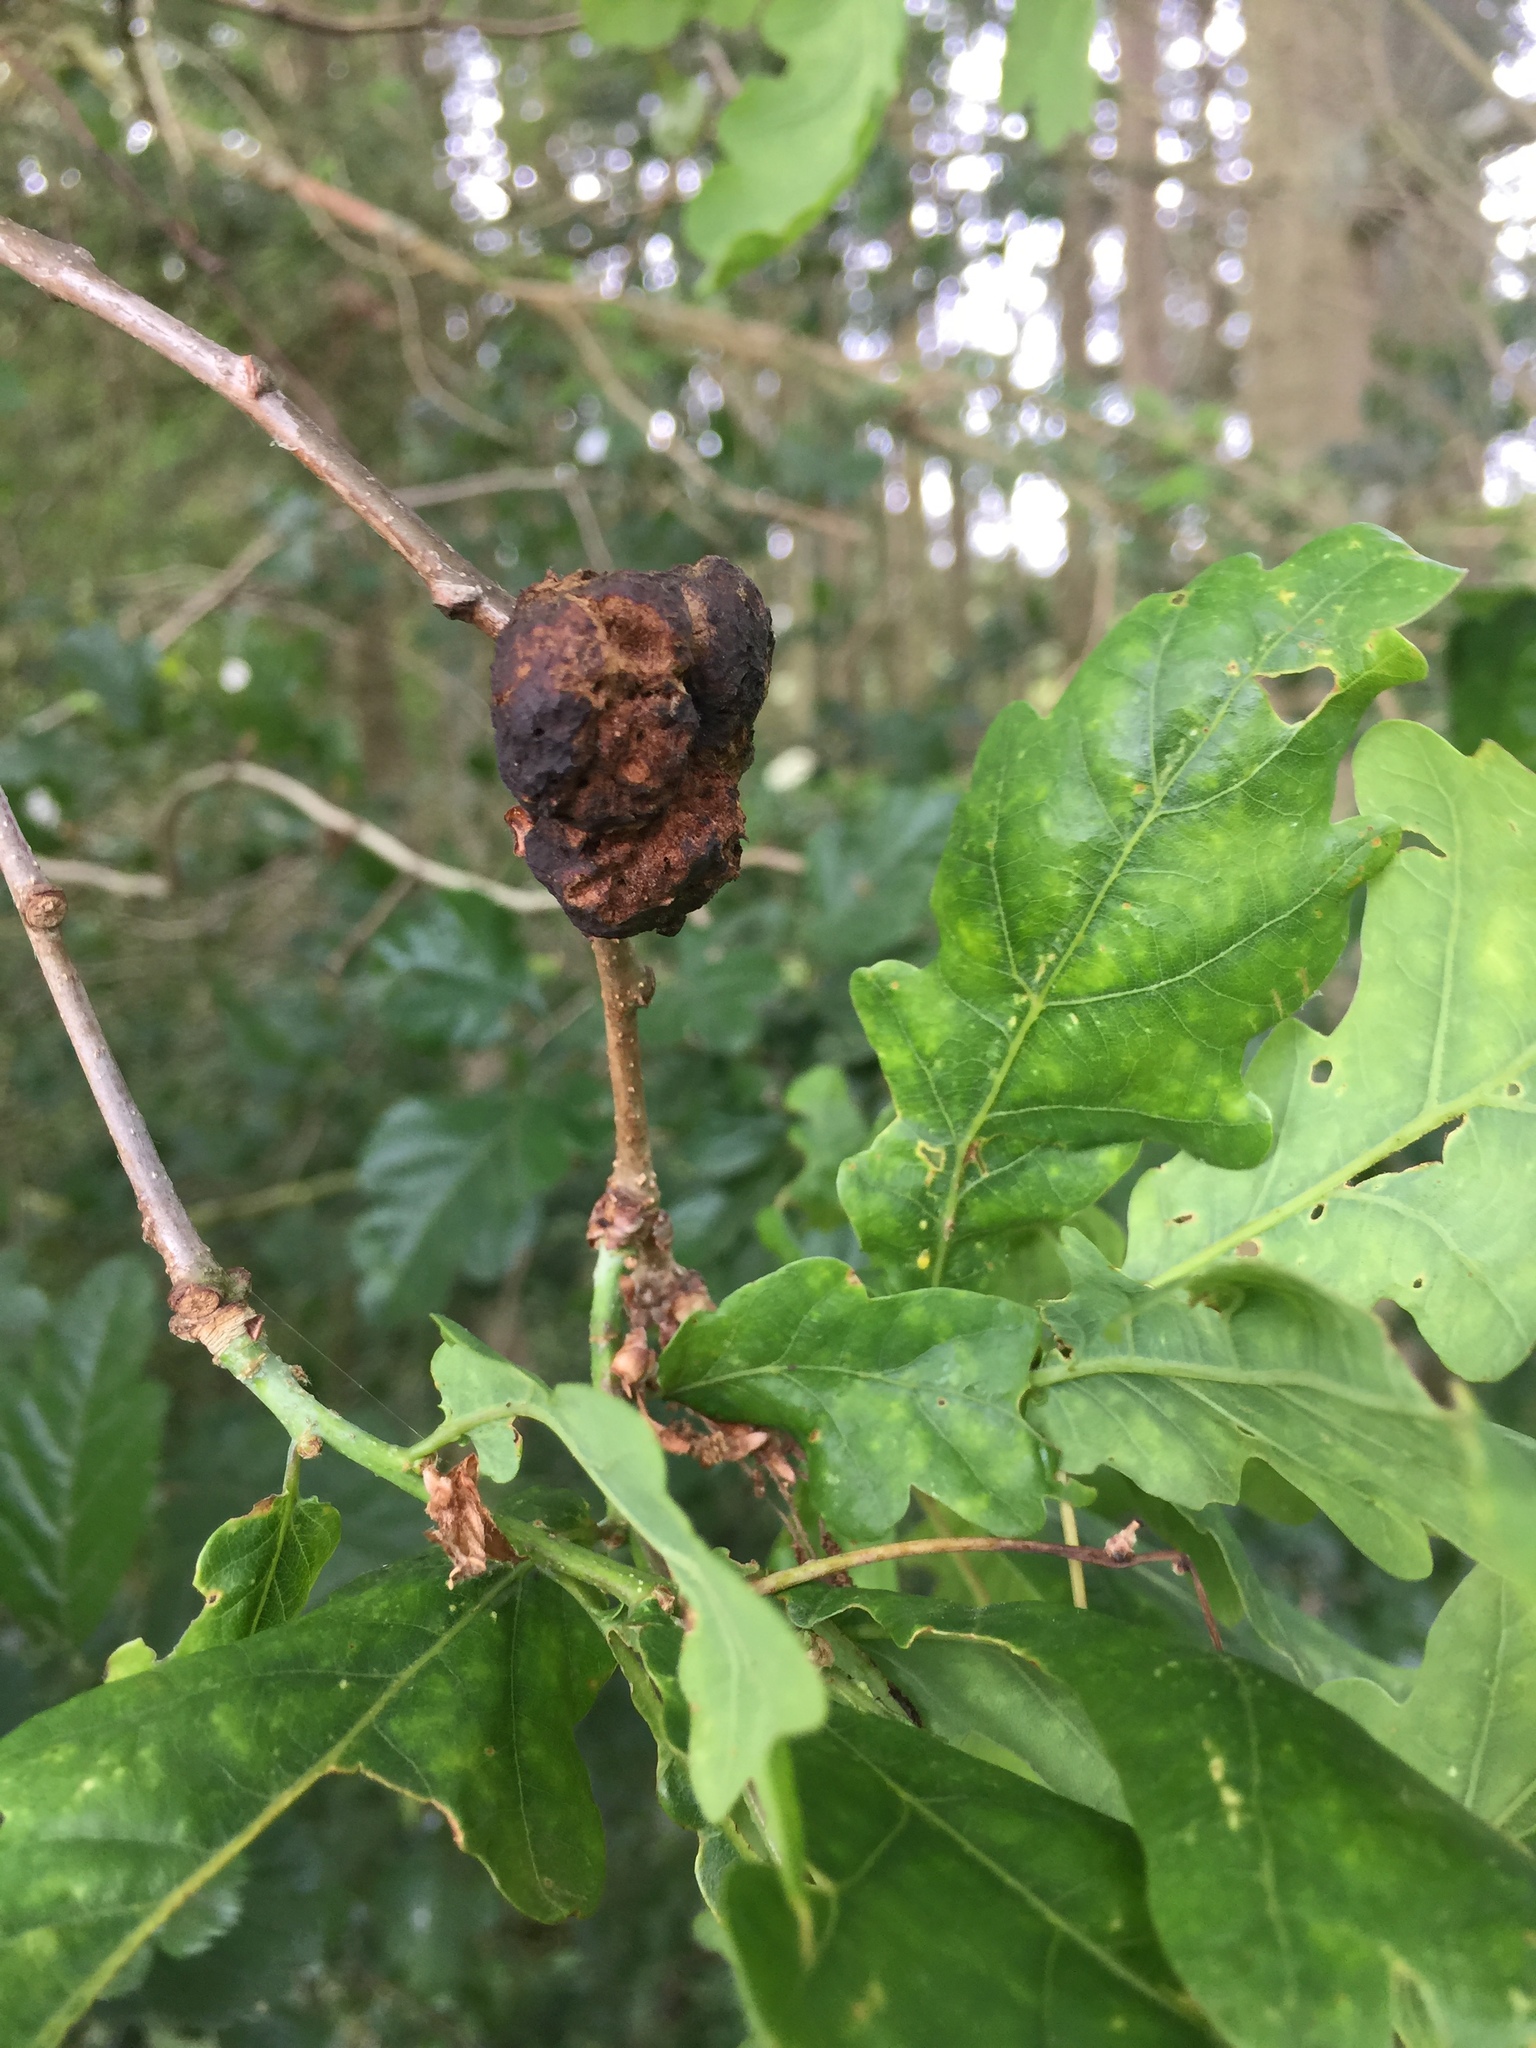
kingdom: Animalia
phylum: Arthropoda
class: Insecta
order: Hymenoptera
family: Cynipidae
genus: Biorhiza
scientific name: Biorhiza pallida
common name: Oak apple
